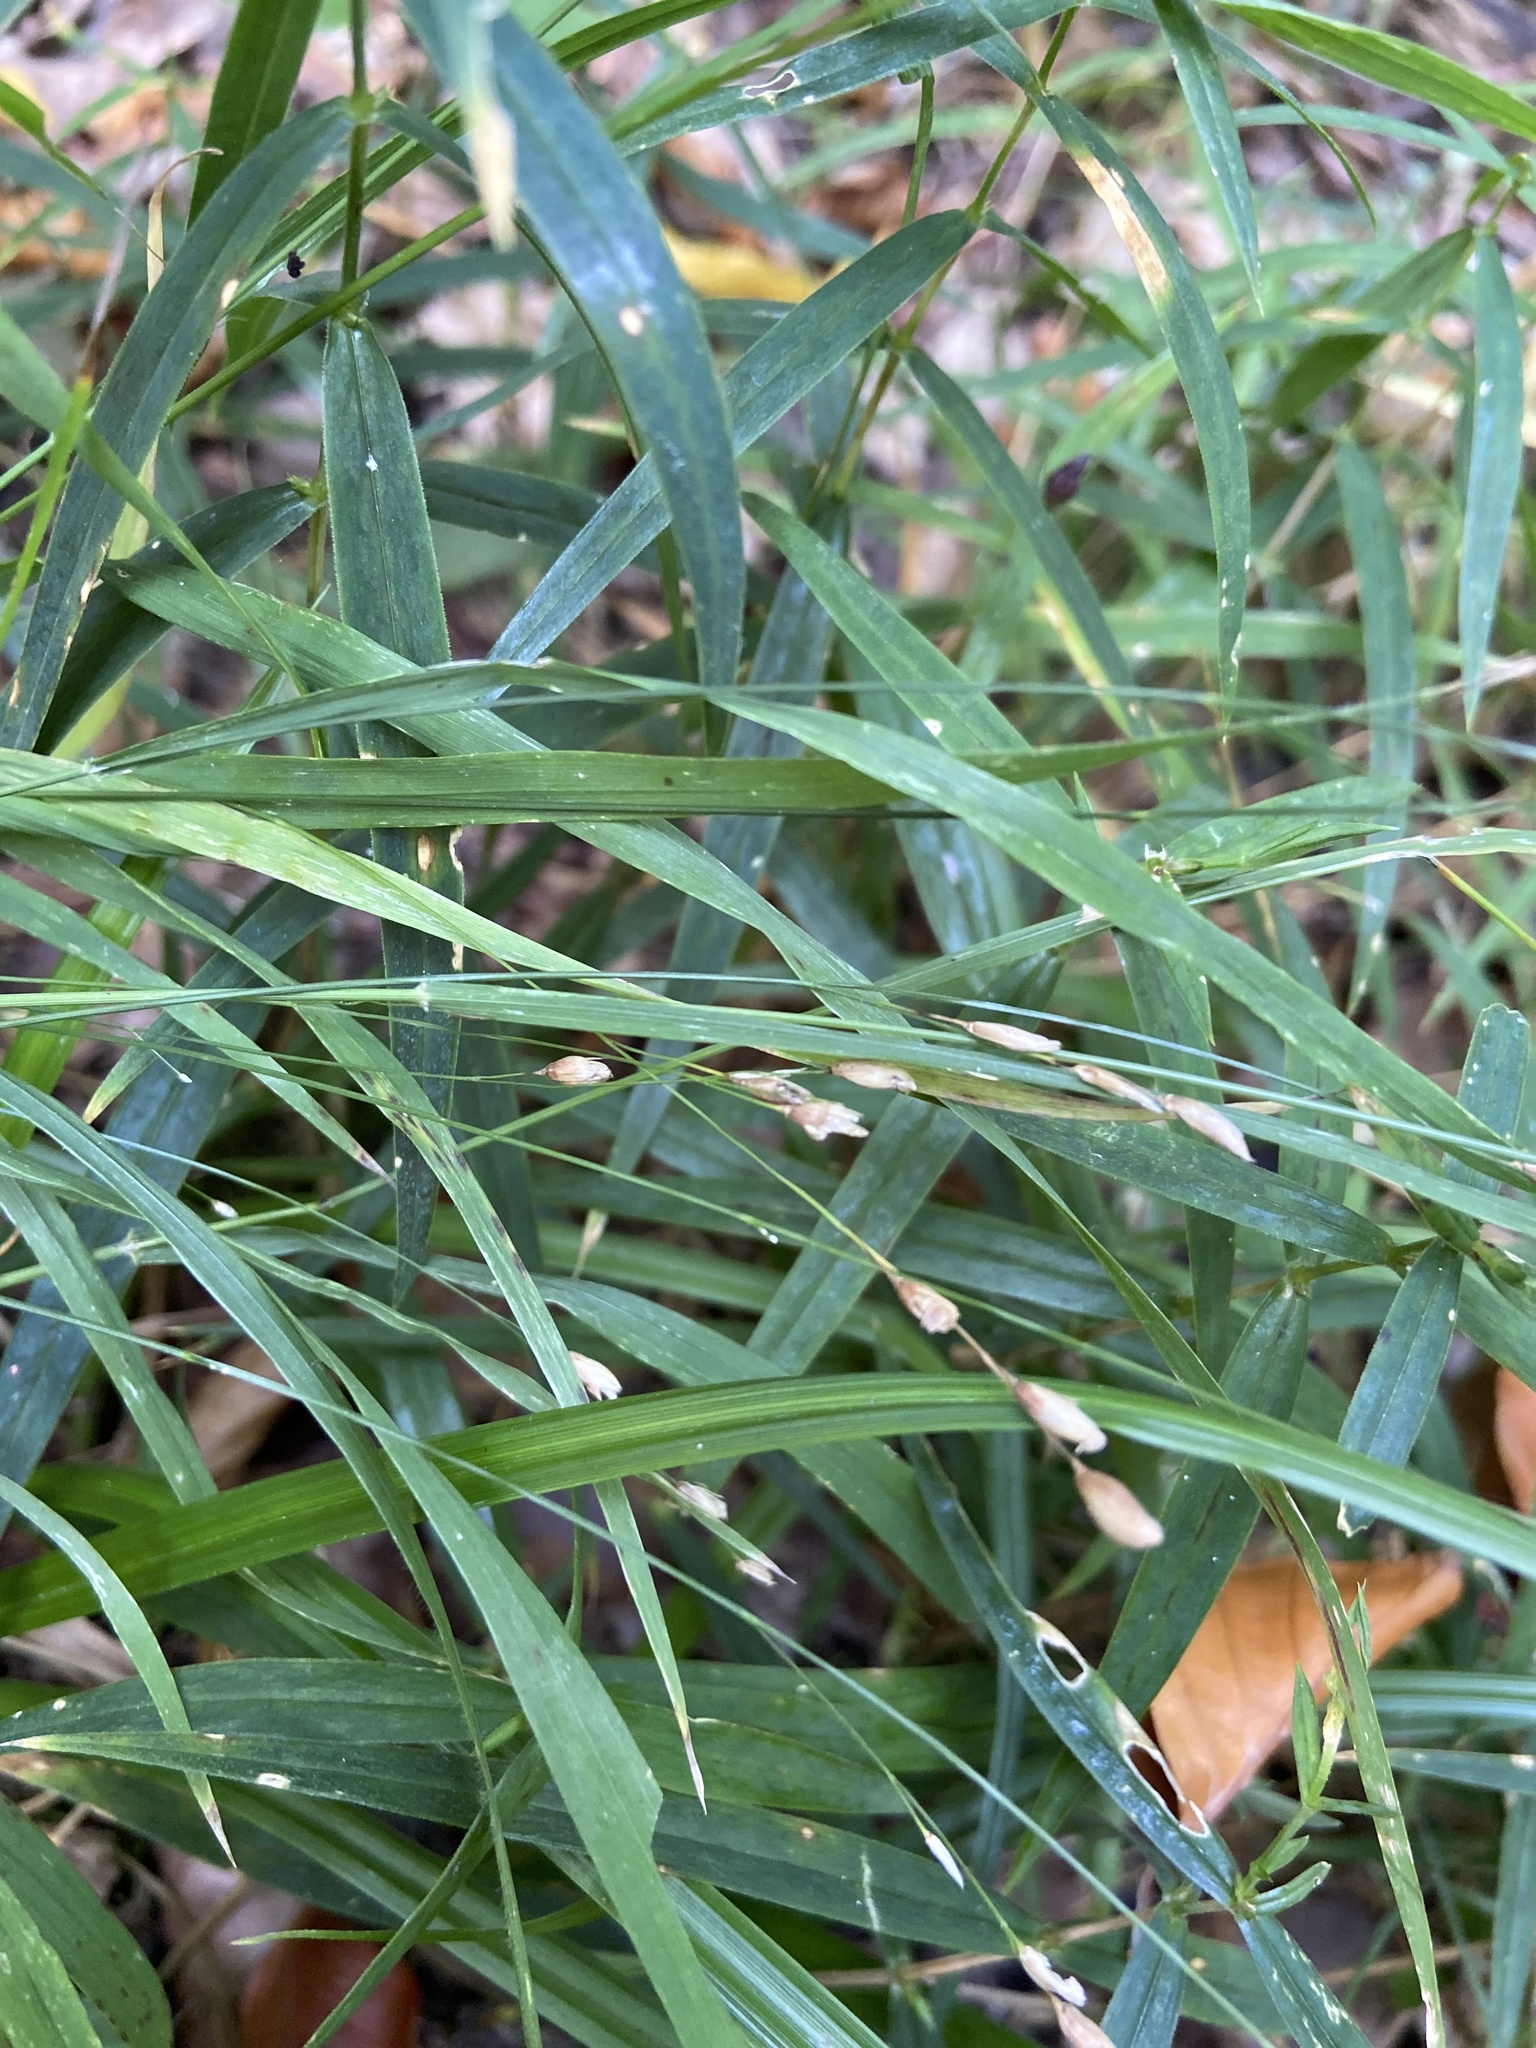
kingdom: Plantae
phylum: Tracheophyta
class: Liliopsida
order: Poales
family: Poaceae
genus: Melica
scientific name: Melica uniflora
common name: Wood melick
